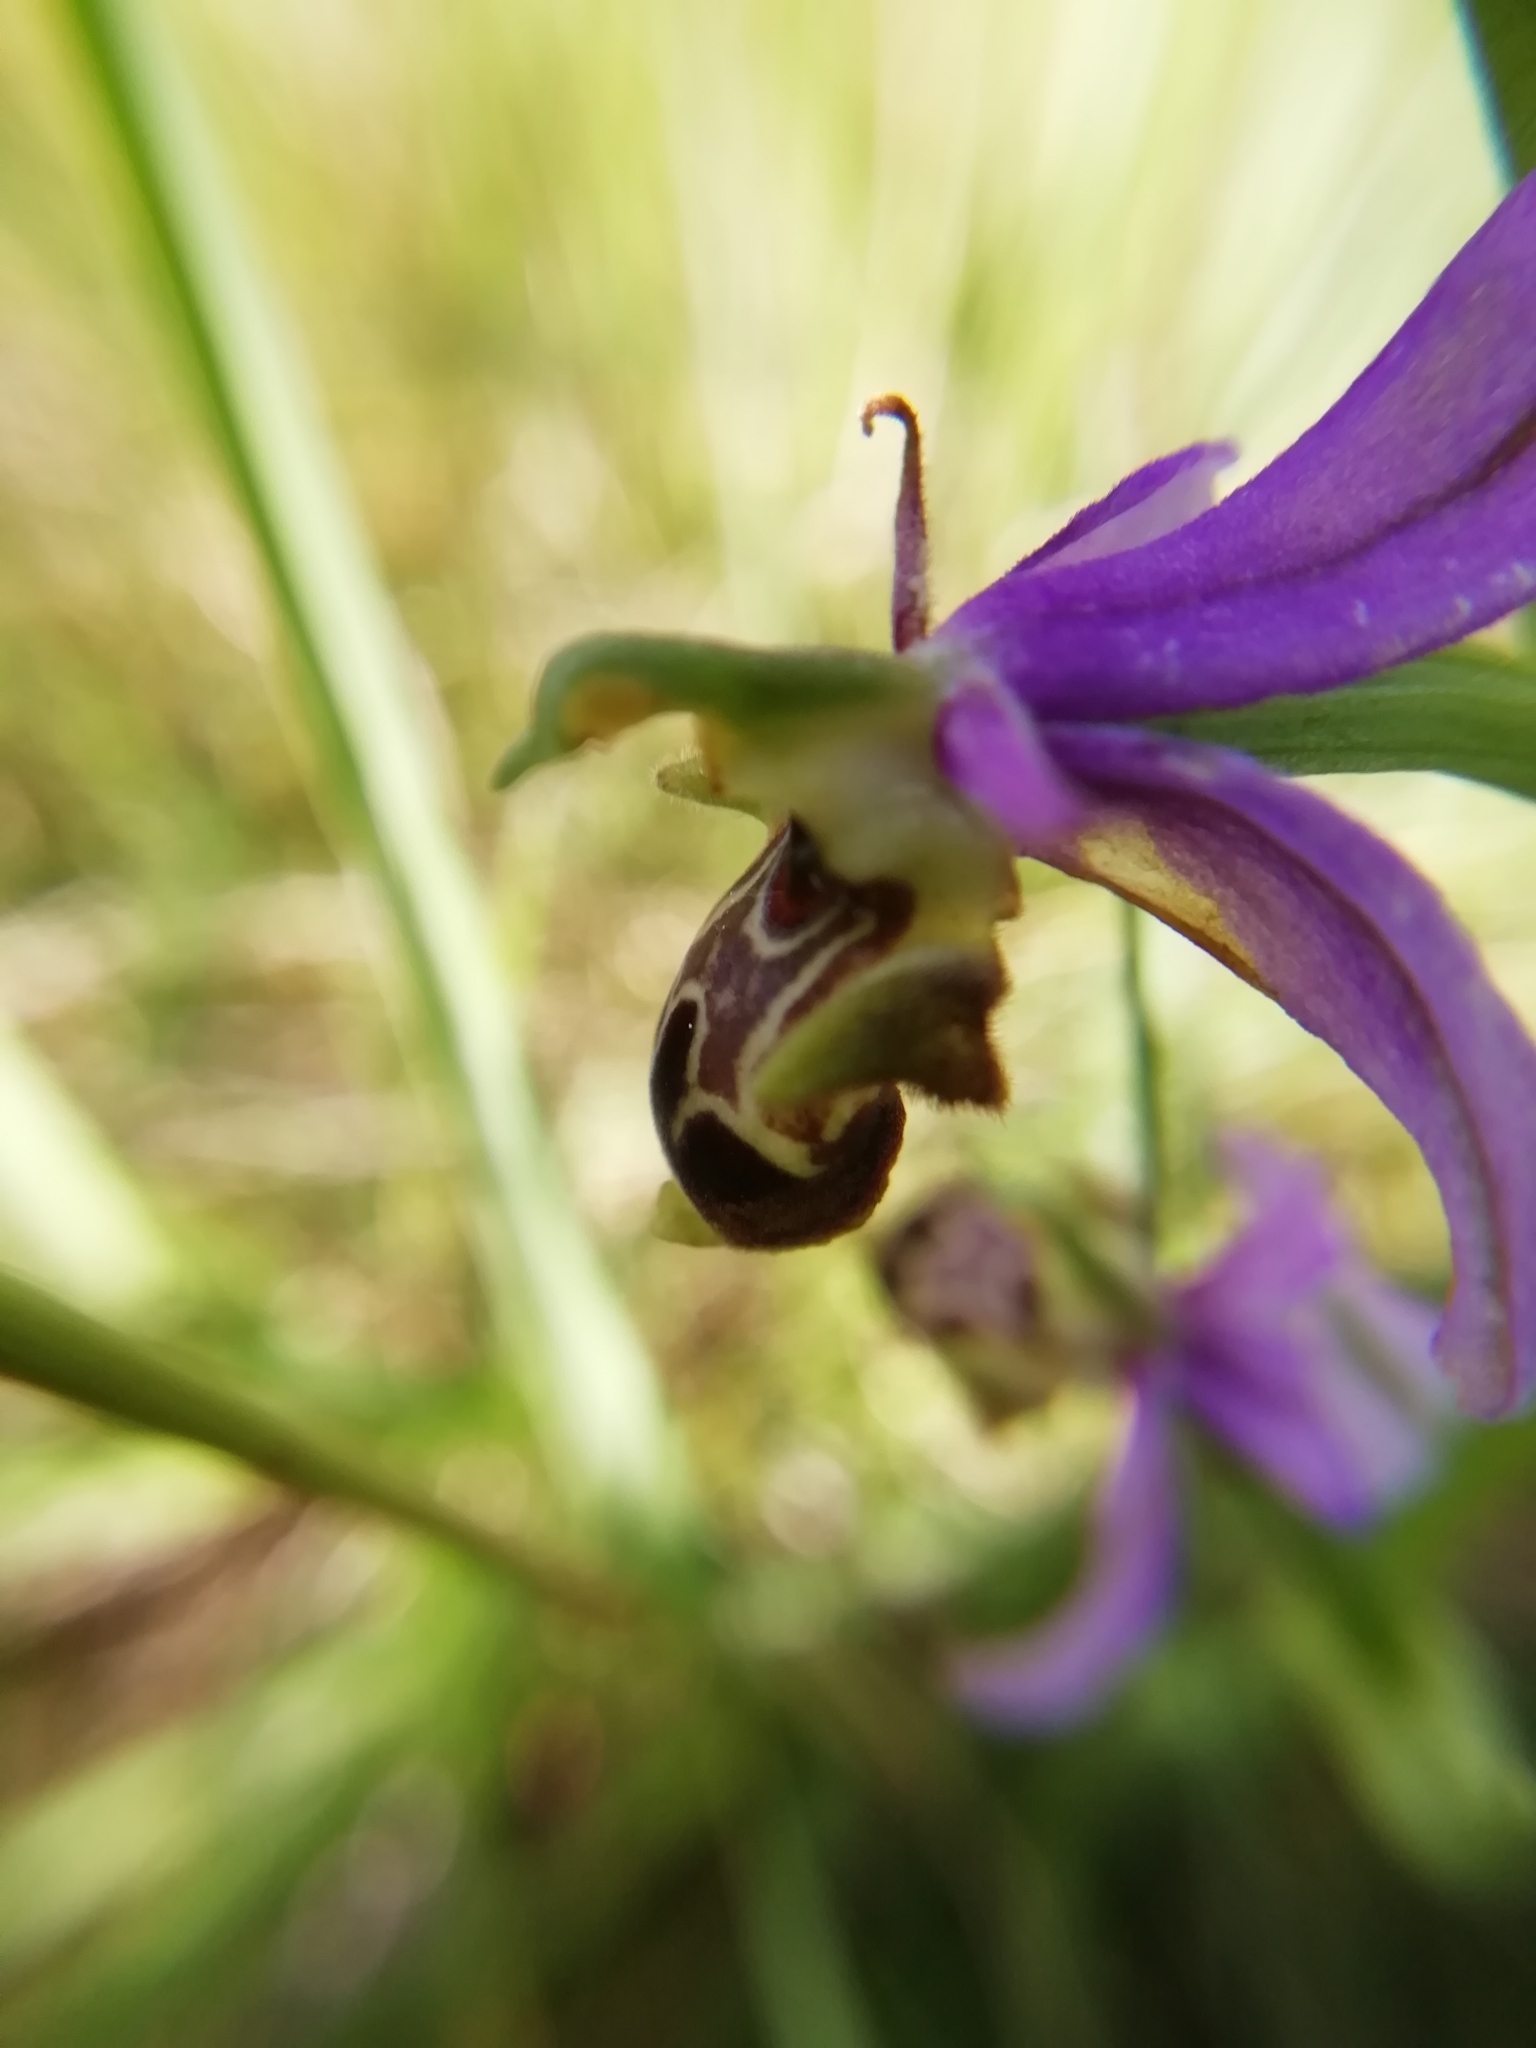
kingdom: Plantae
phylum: Tracheophyta
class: Liliopsida
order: Asparagales
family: Orchidaceae
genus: Ophrys
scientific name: Ophrys scolopax
